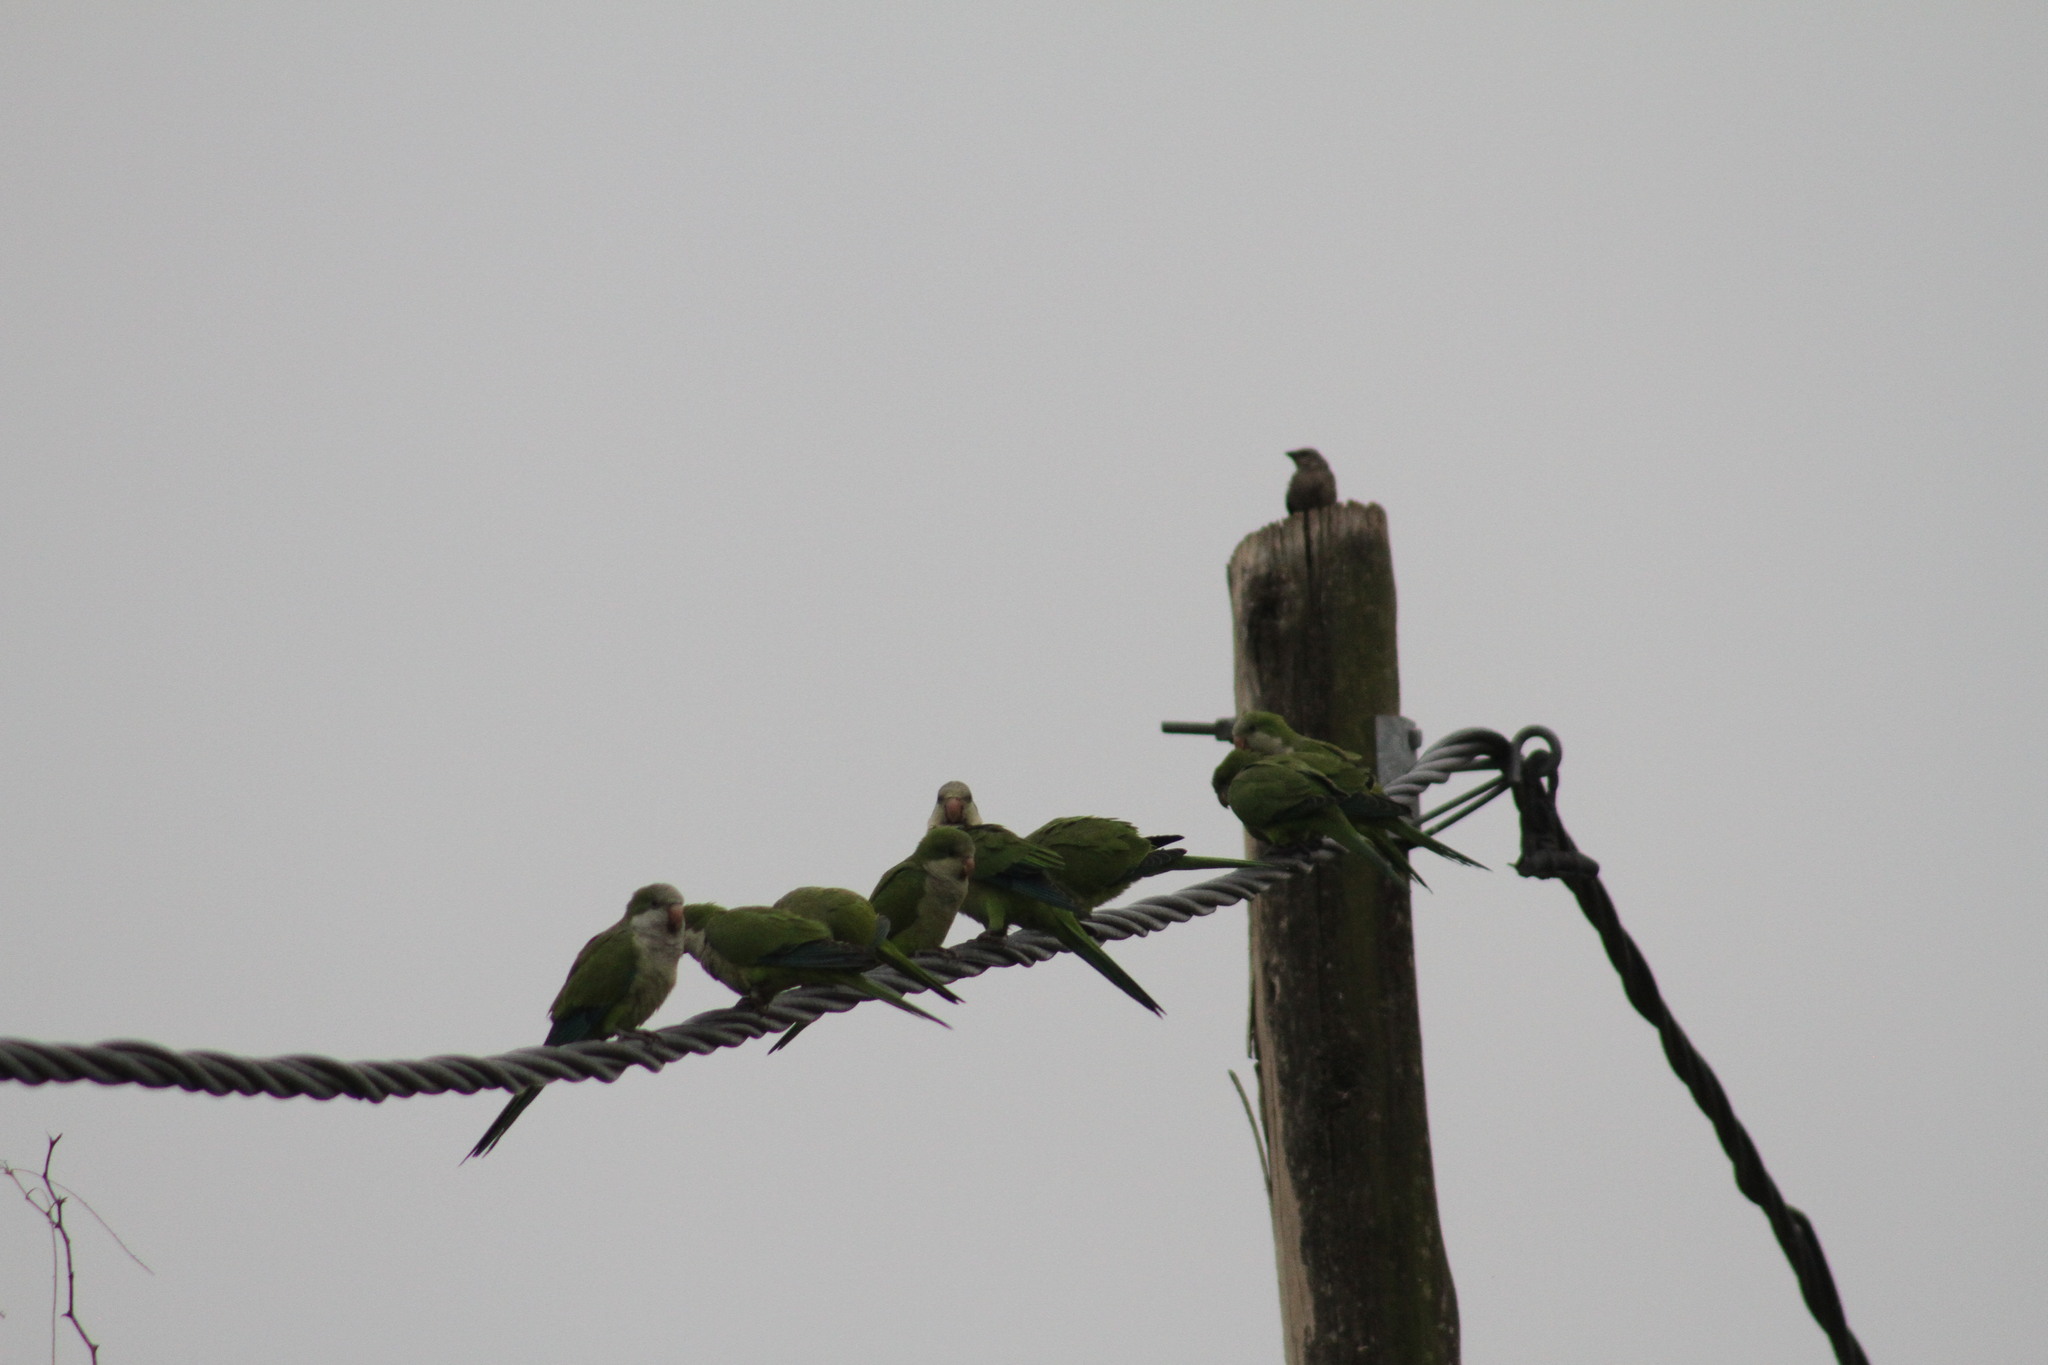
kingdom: Animalia
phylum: Chordata
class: Aves
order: Psittaciformes
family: Psittacidae
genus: Myiopsitta
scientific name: Myiopsitta monachus
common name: Monk parakeet
